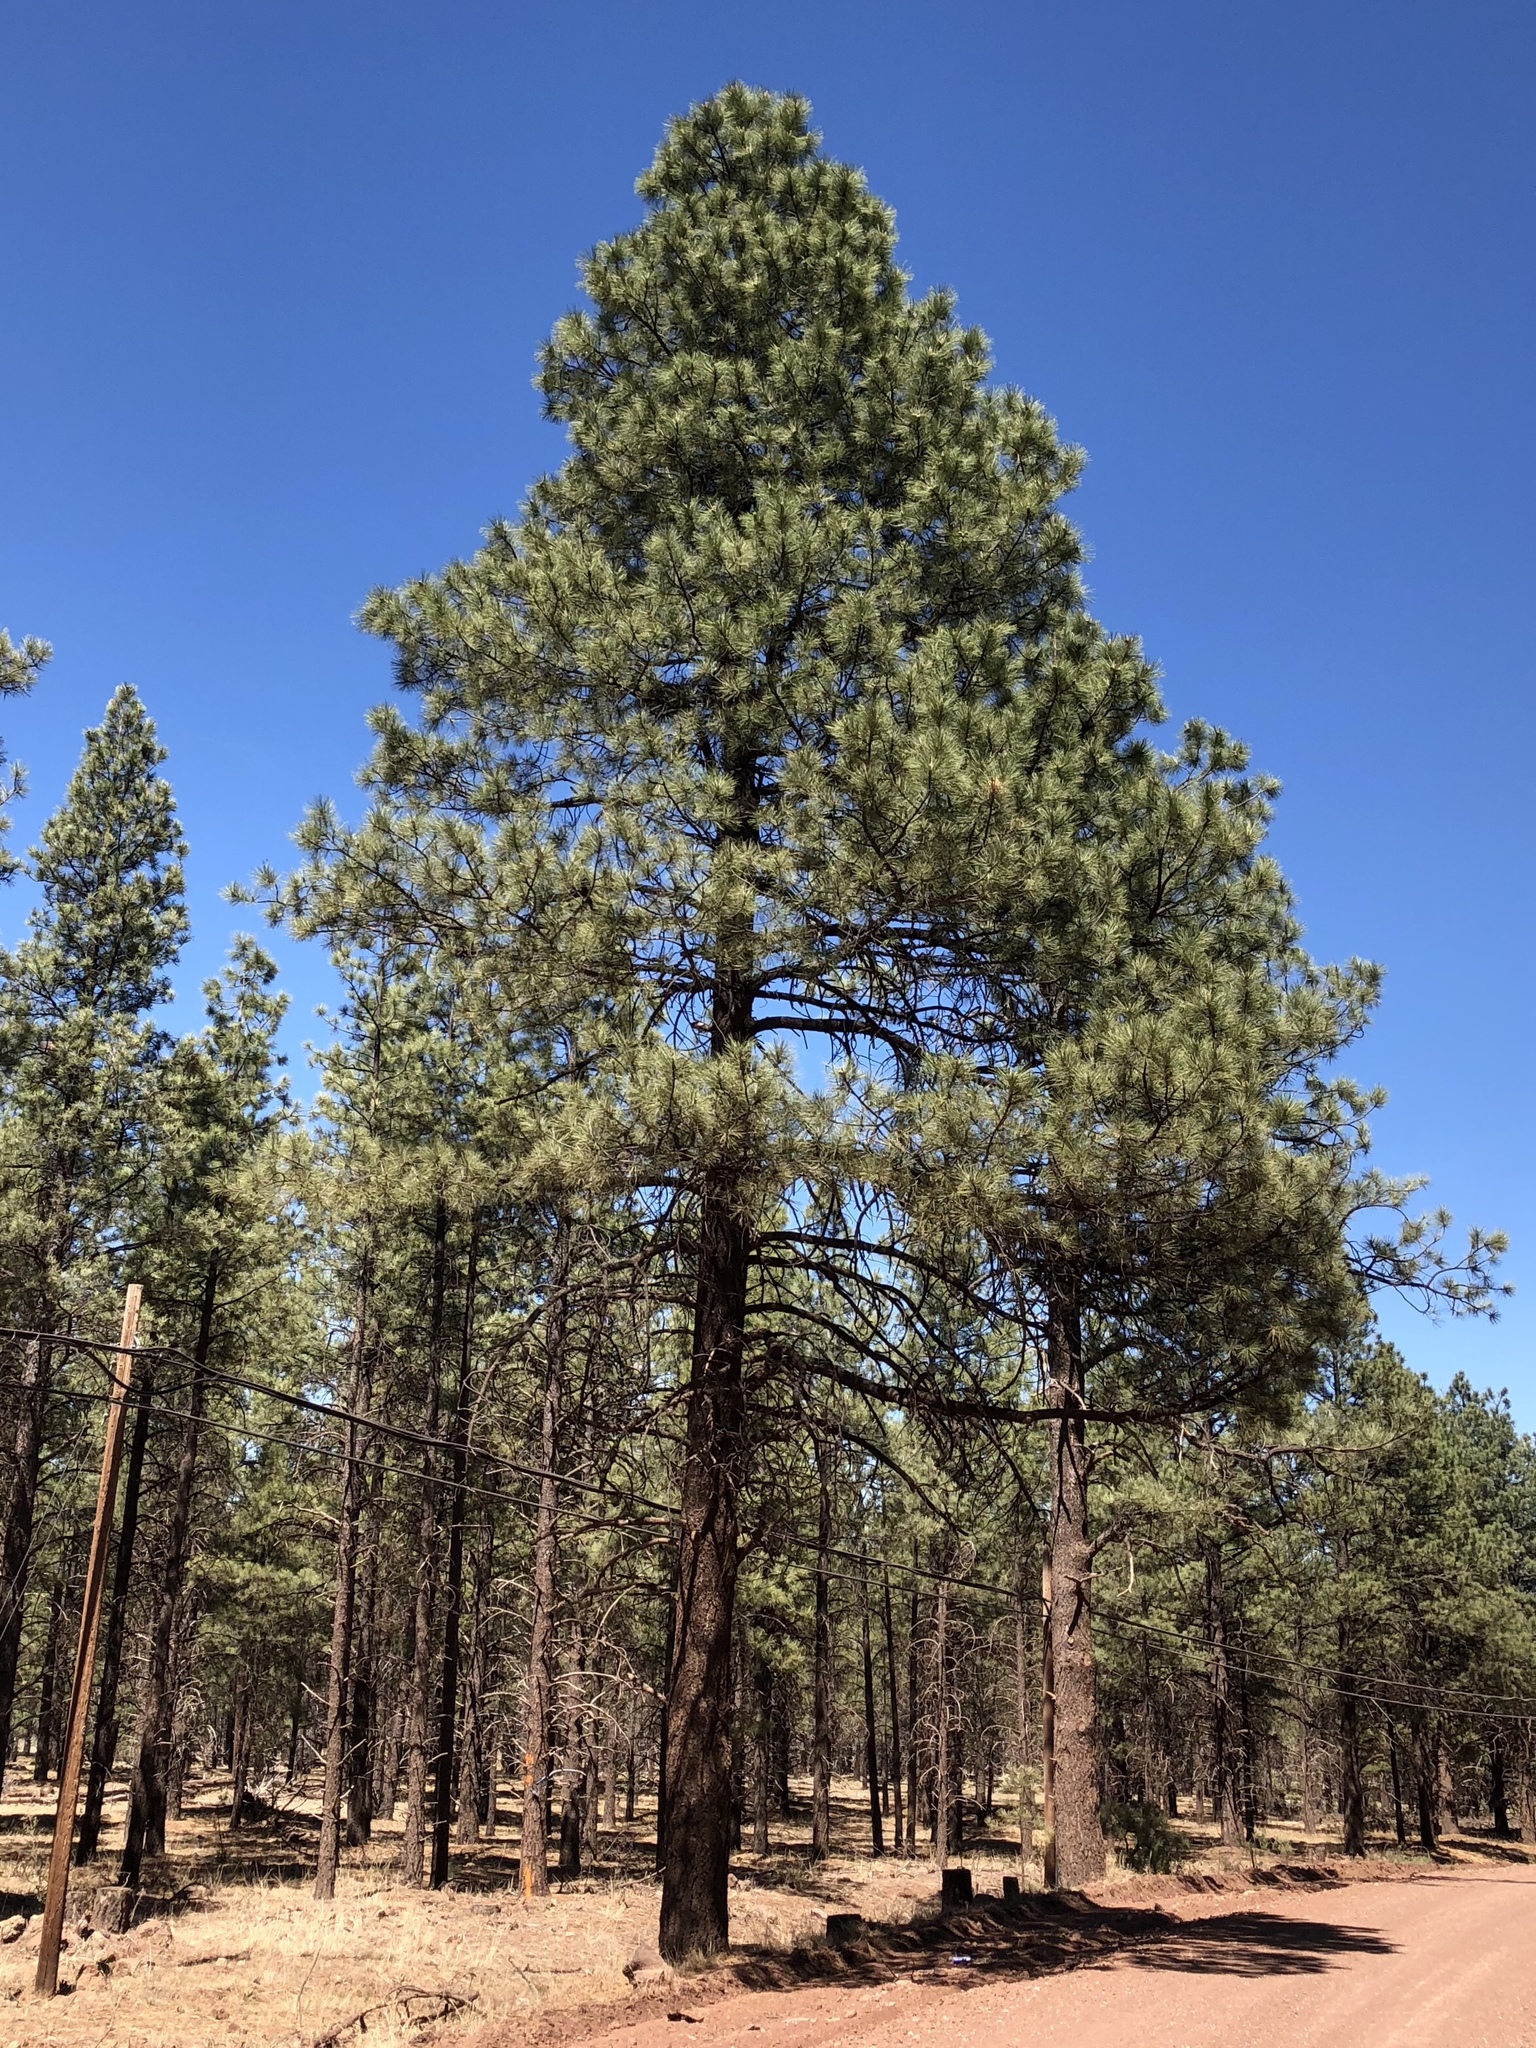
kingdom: Plantae
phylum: Tracheophyta
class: Pinopsida
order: Pinales
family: Pinaceae
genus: Pinus
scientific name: Pinus ponderosa
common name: Western yellow-pine
